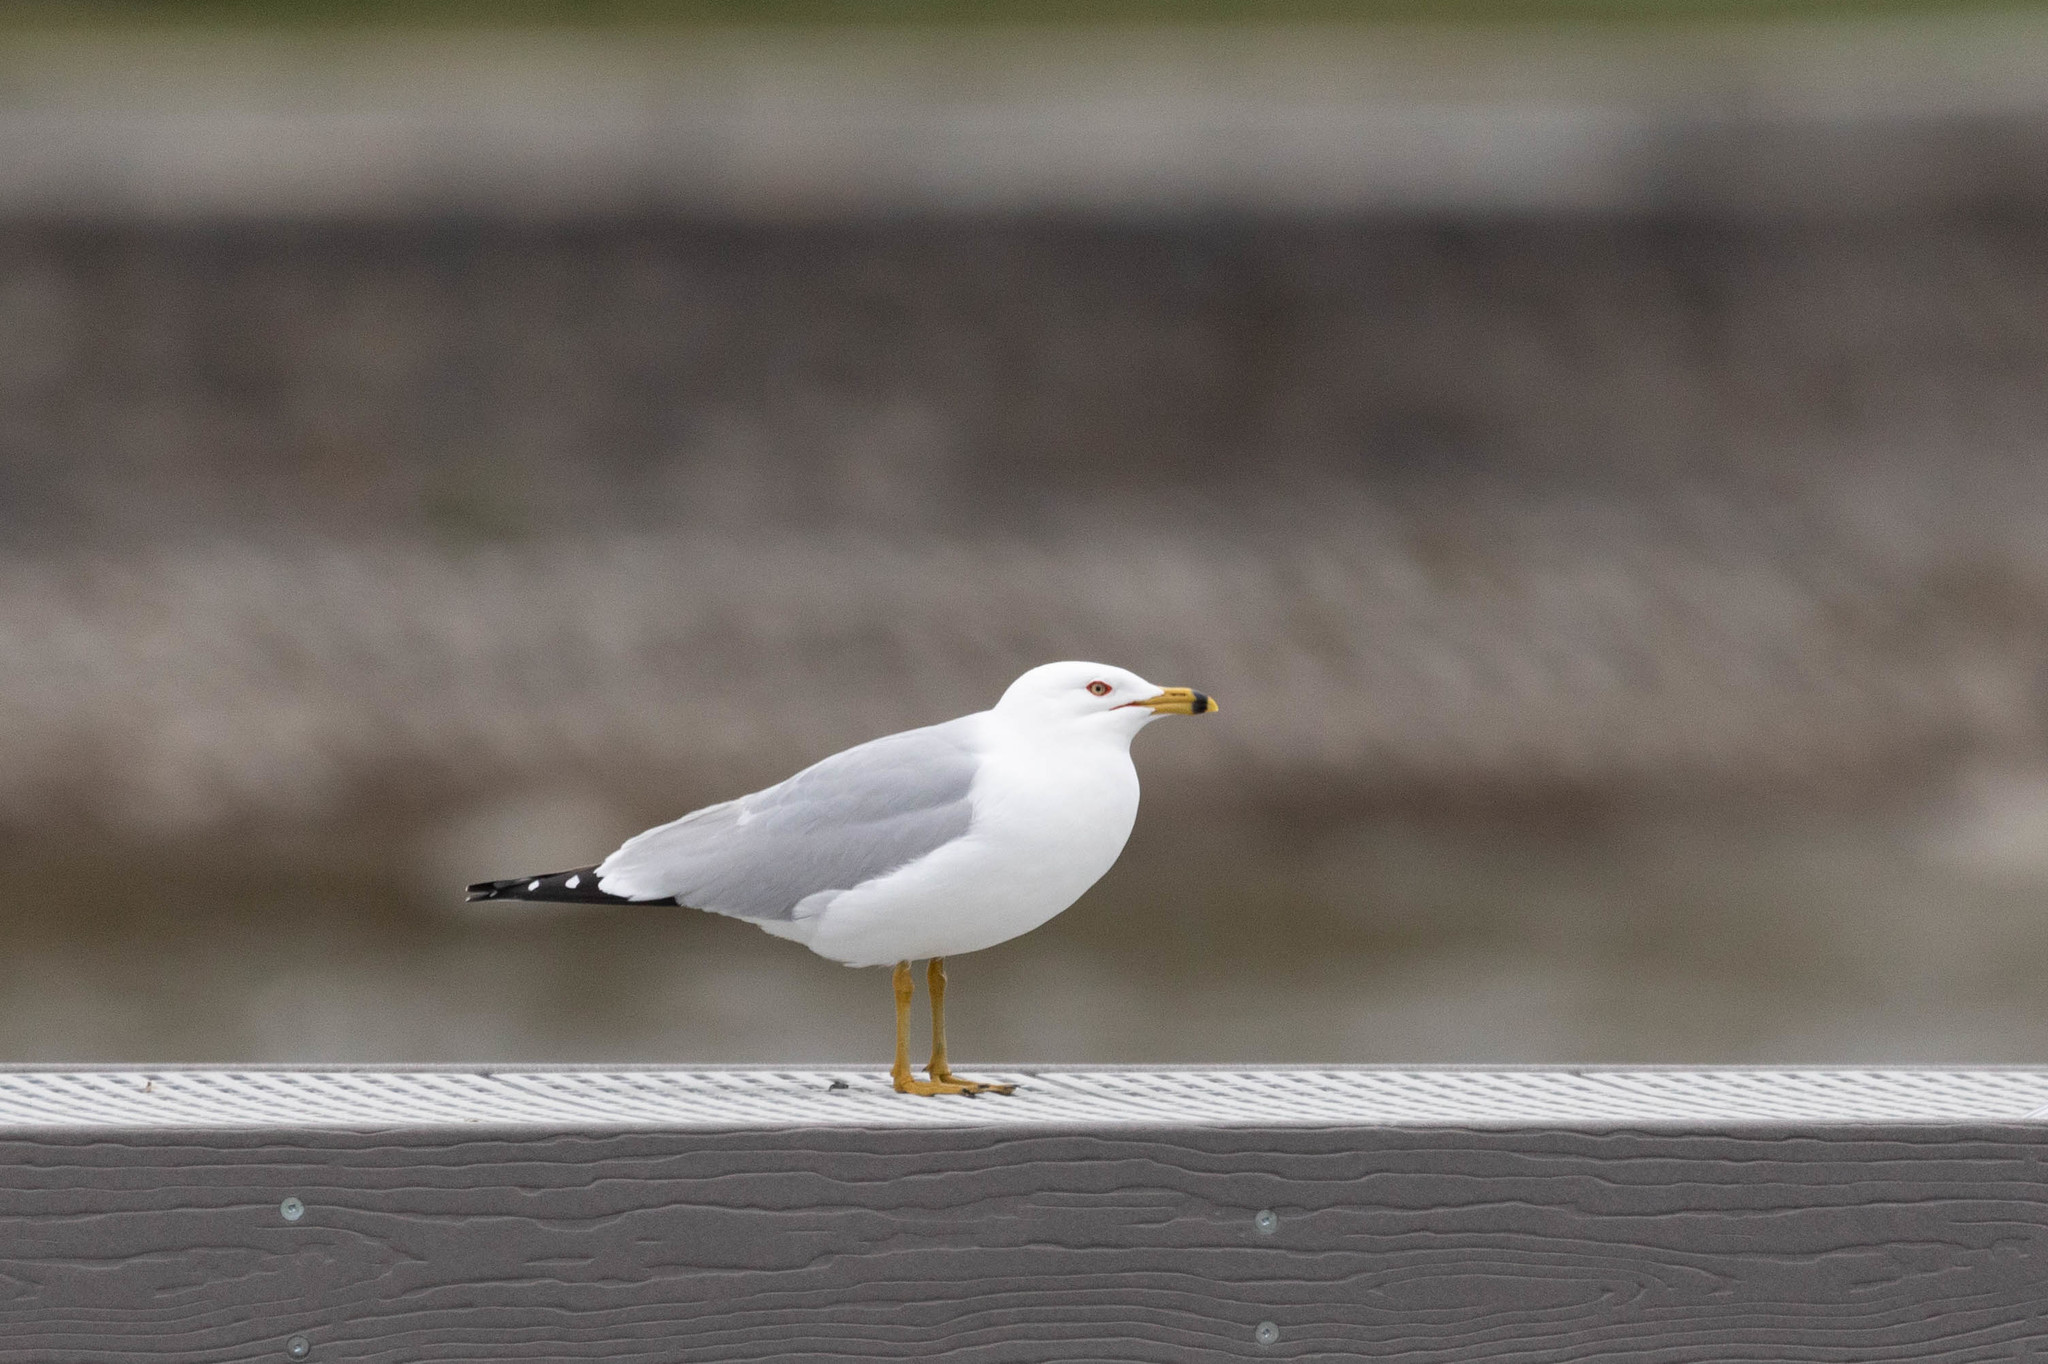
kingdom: Animalia
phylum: Chordata
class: Aves
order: Charadriiformes
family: Laridae
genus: Larus
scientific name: Larus delawarensis
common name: Ring-billed gull
